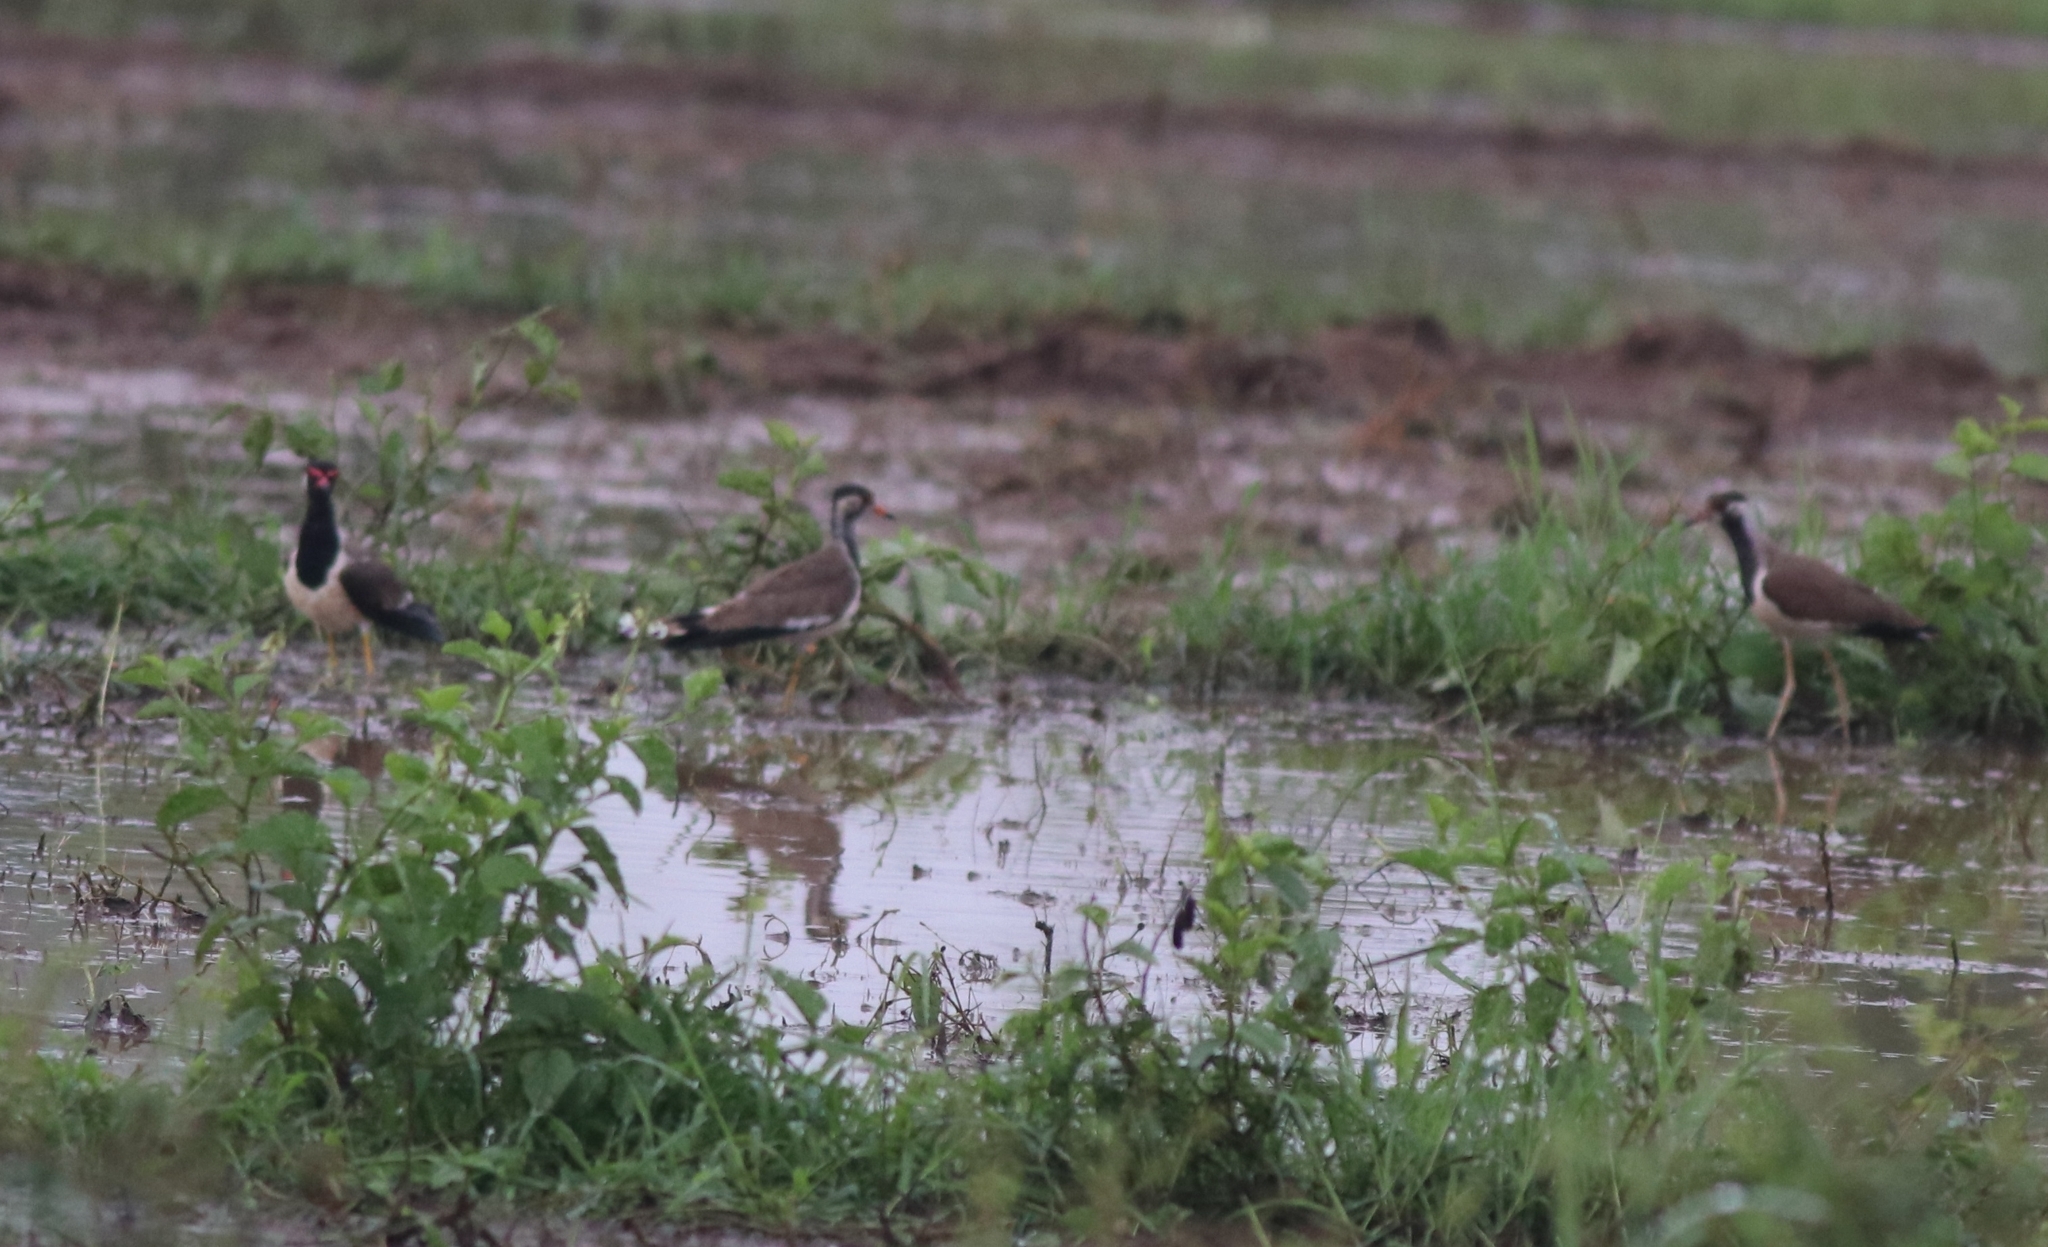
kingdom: Animalia
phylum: Chordata
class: Aves
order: Charadriiformes
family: Charadriidae
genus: Vanellus
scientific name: Vanellus indicus
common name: Red-wattled lapwing
